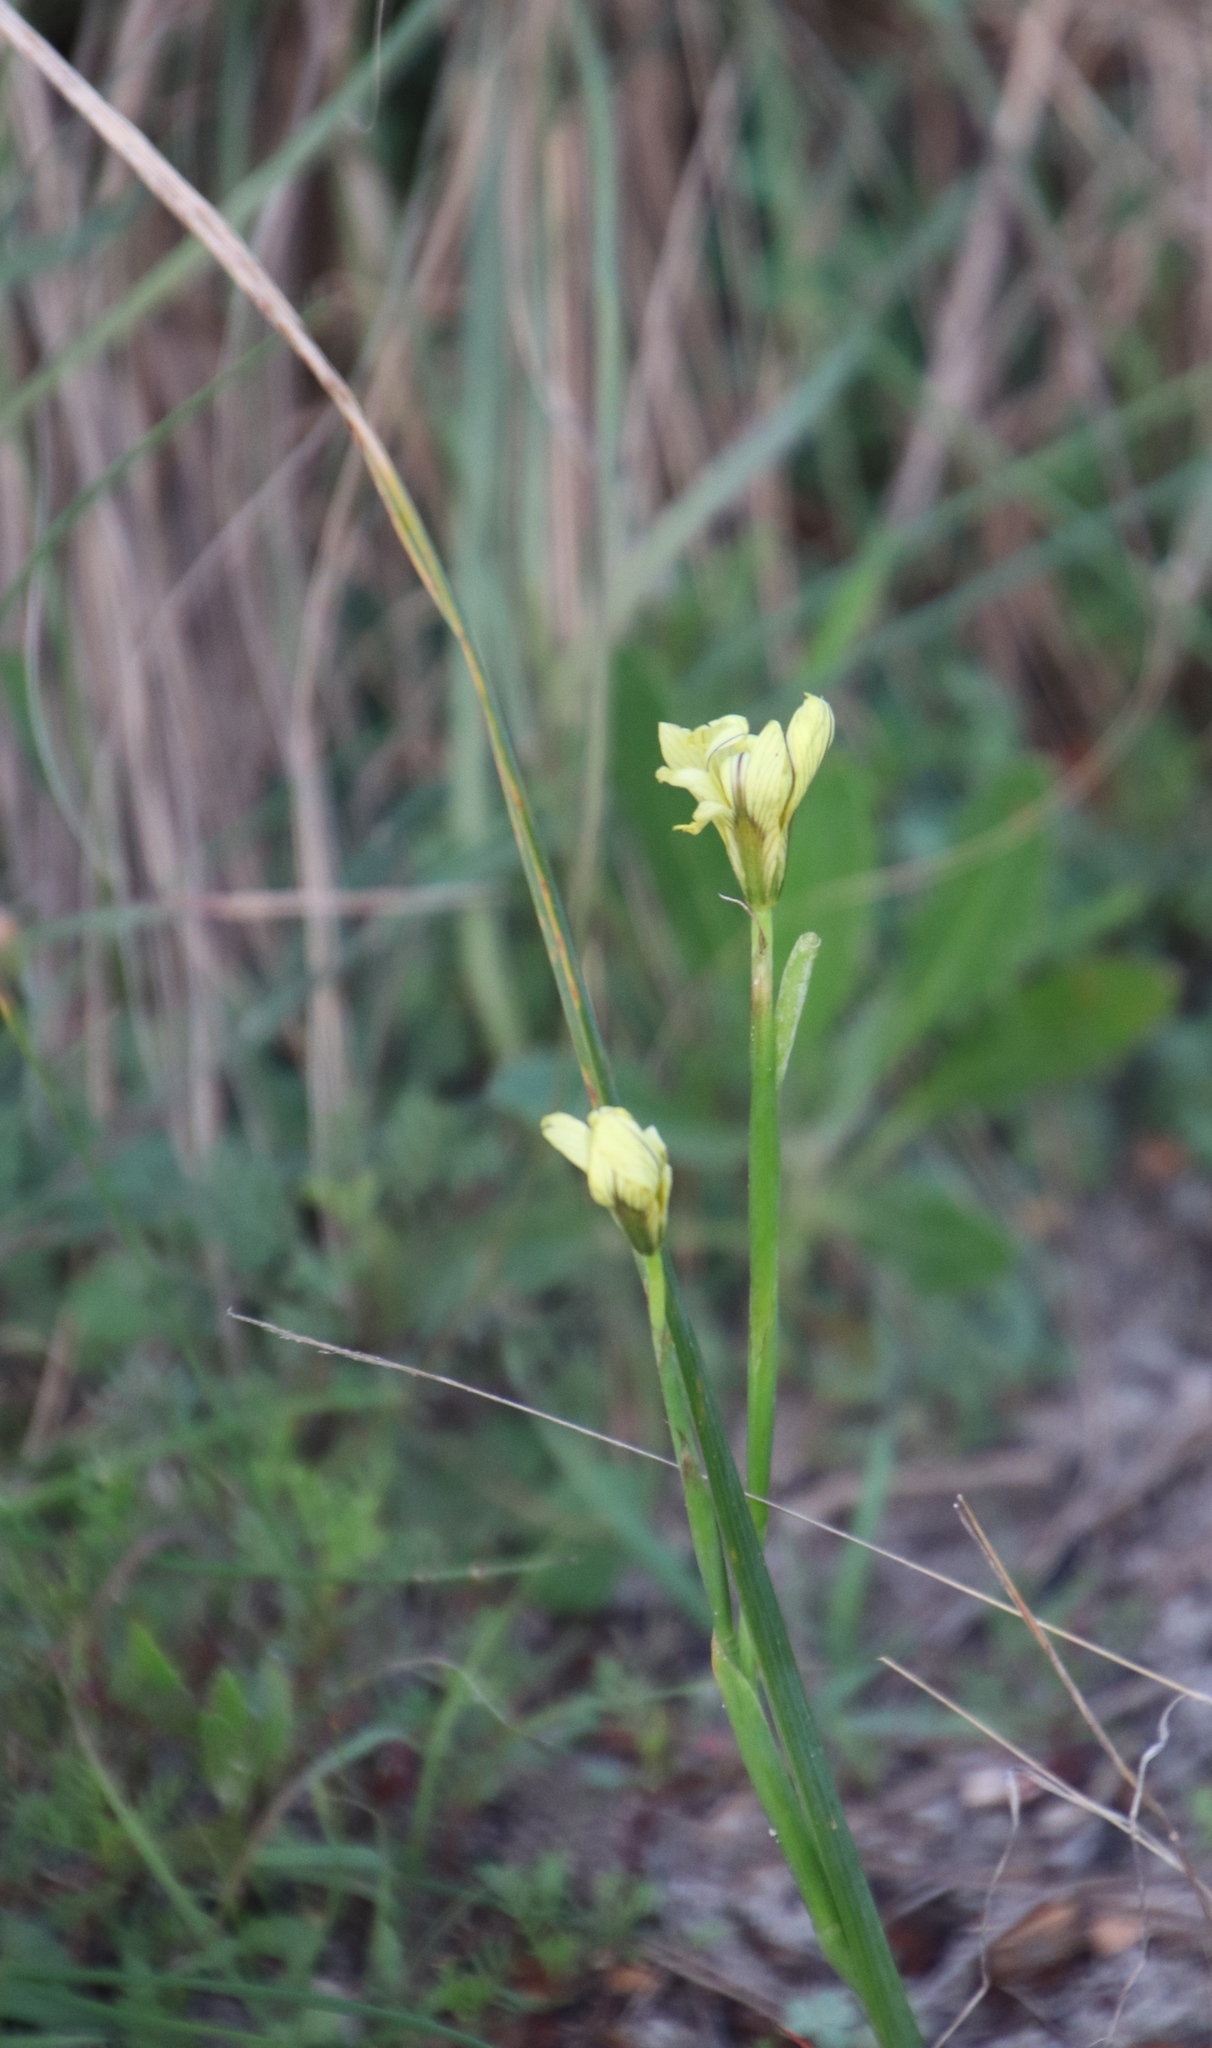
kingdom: Plantae
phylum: Tracheophyta
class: Liliopsida
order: Asparagales
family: Iridaceae
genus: Moraea
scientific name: Moraea collina
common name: Cape-tulip
